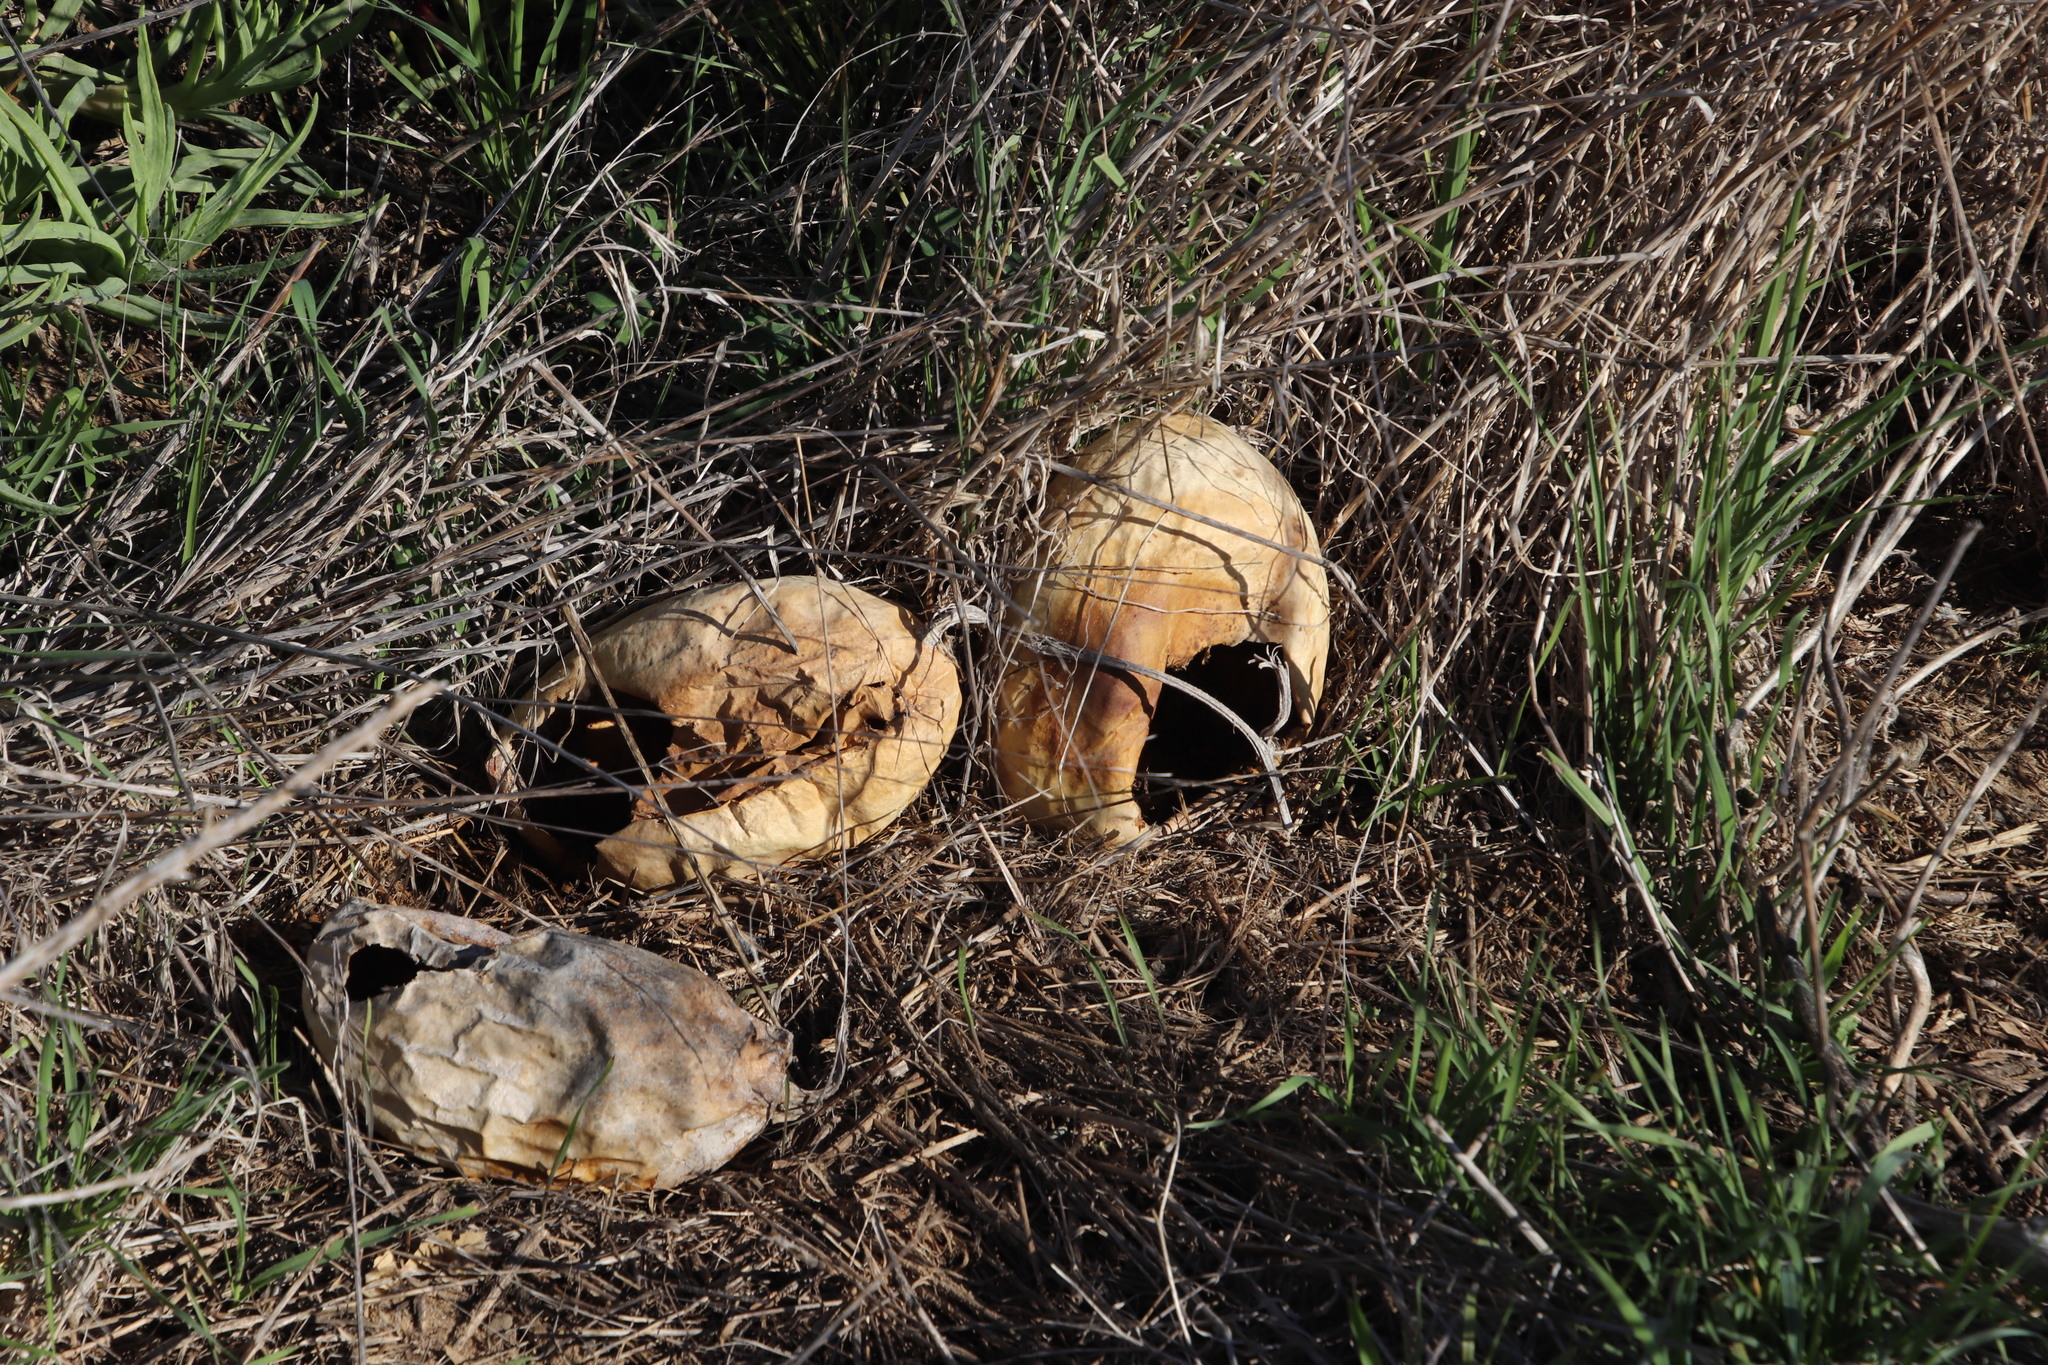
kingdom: Plantae
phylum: Tracheophyta
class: Magnoliopsida
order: Cucurbitales
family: Cucurbitaceae
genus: Citrullus
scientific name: Citrullus amarus
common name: Fodder-melon
